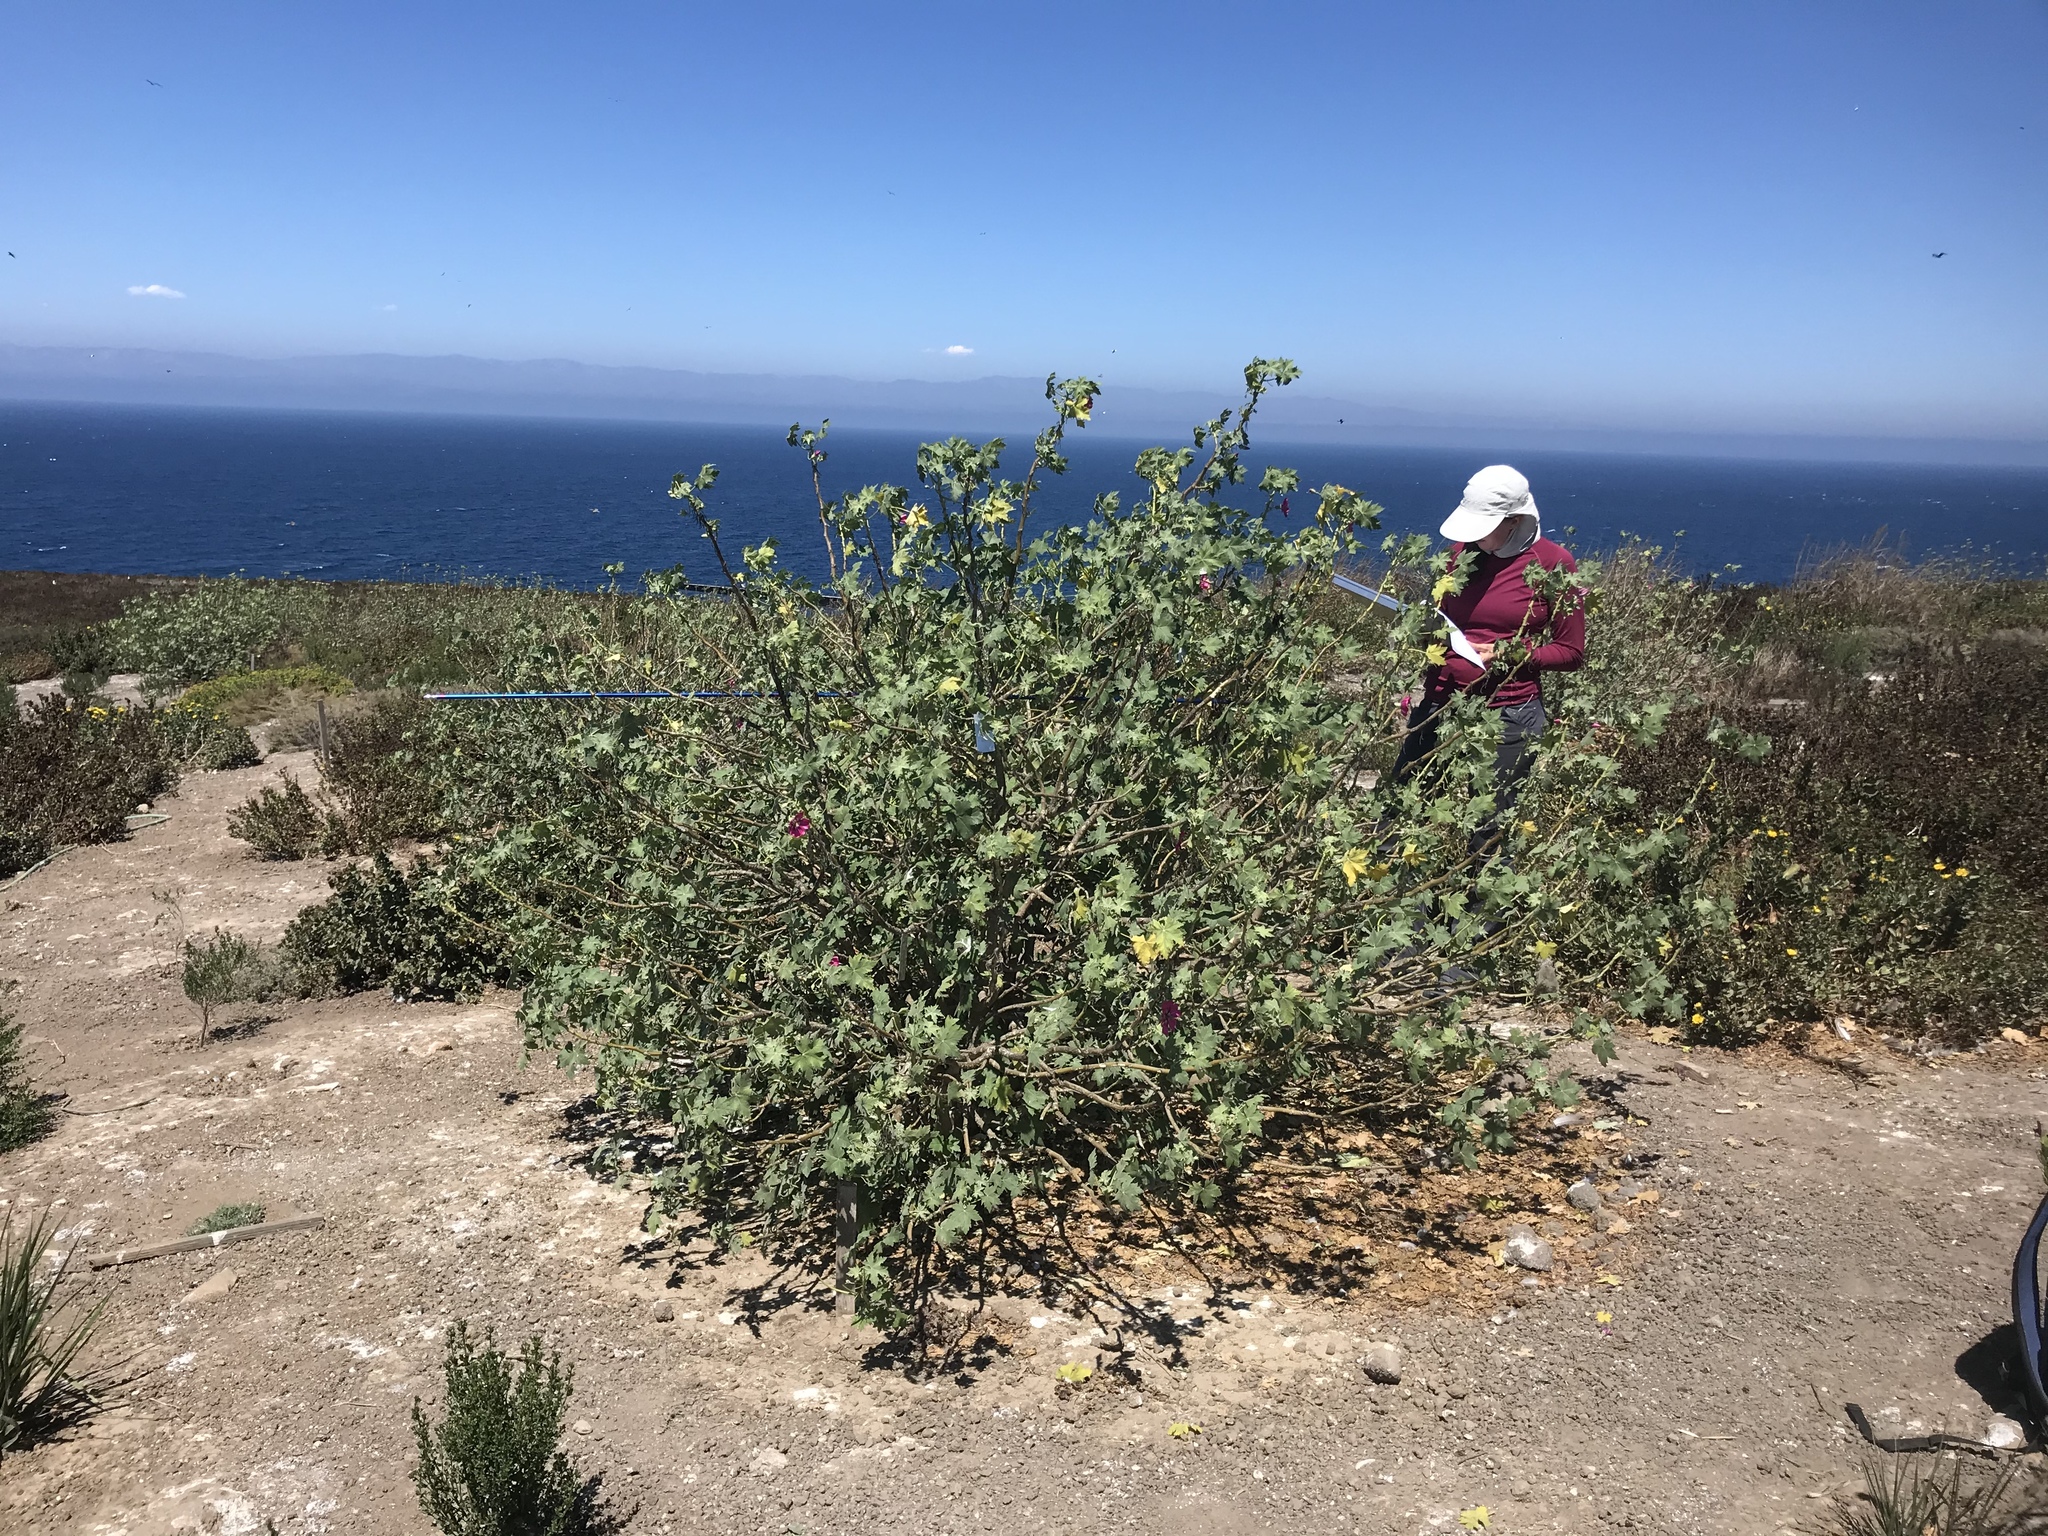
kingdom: Plantae
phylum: Tracheophyta
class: Magnoliopsida
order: Malvales
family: Malvaceae
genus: Malva
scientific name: Malva assurgentiflora
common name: Island mallow
